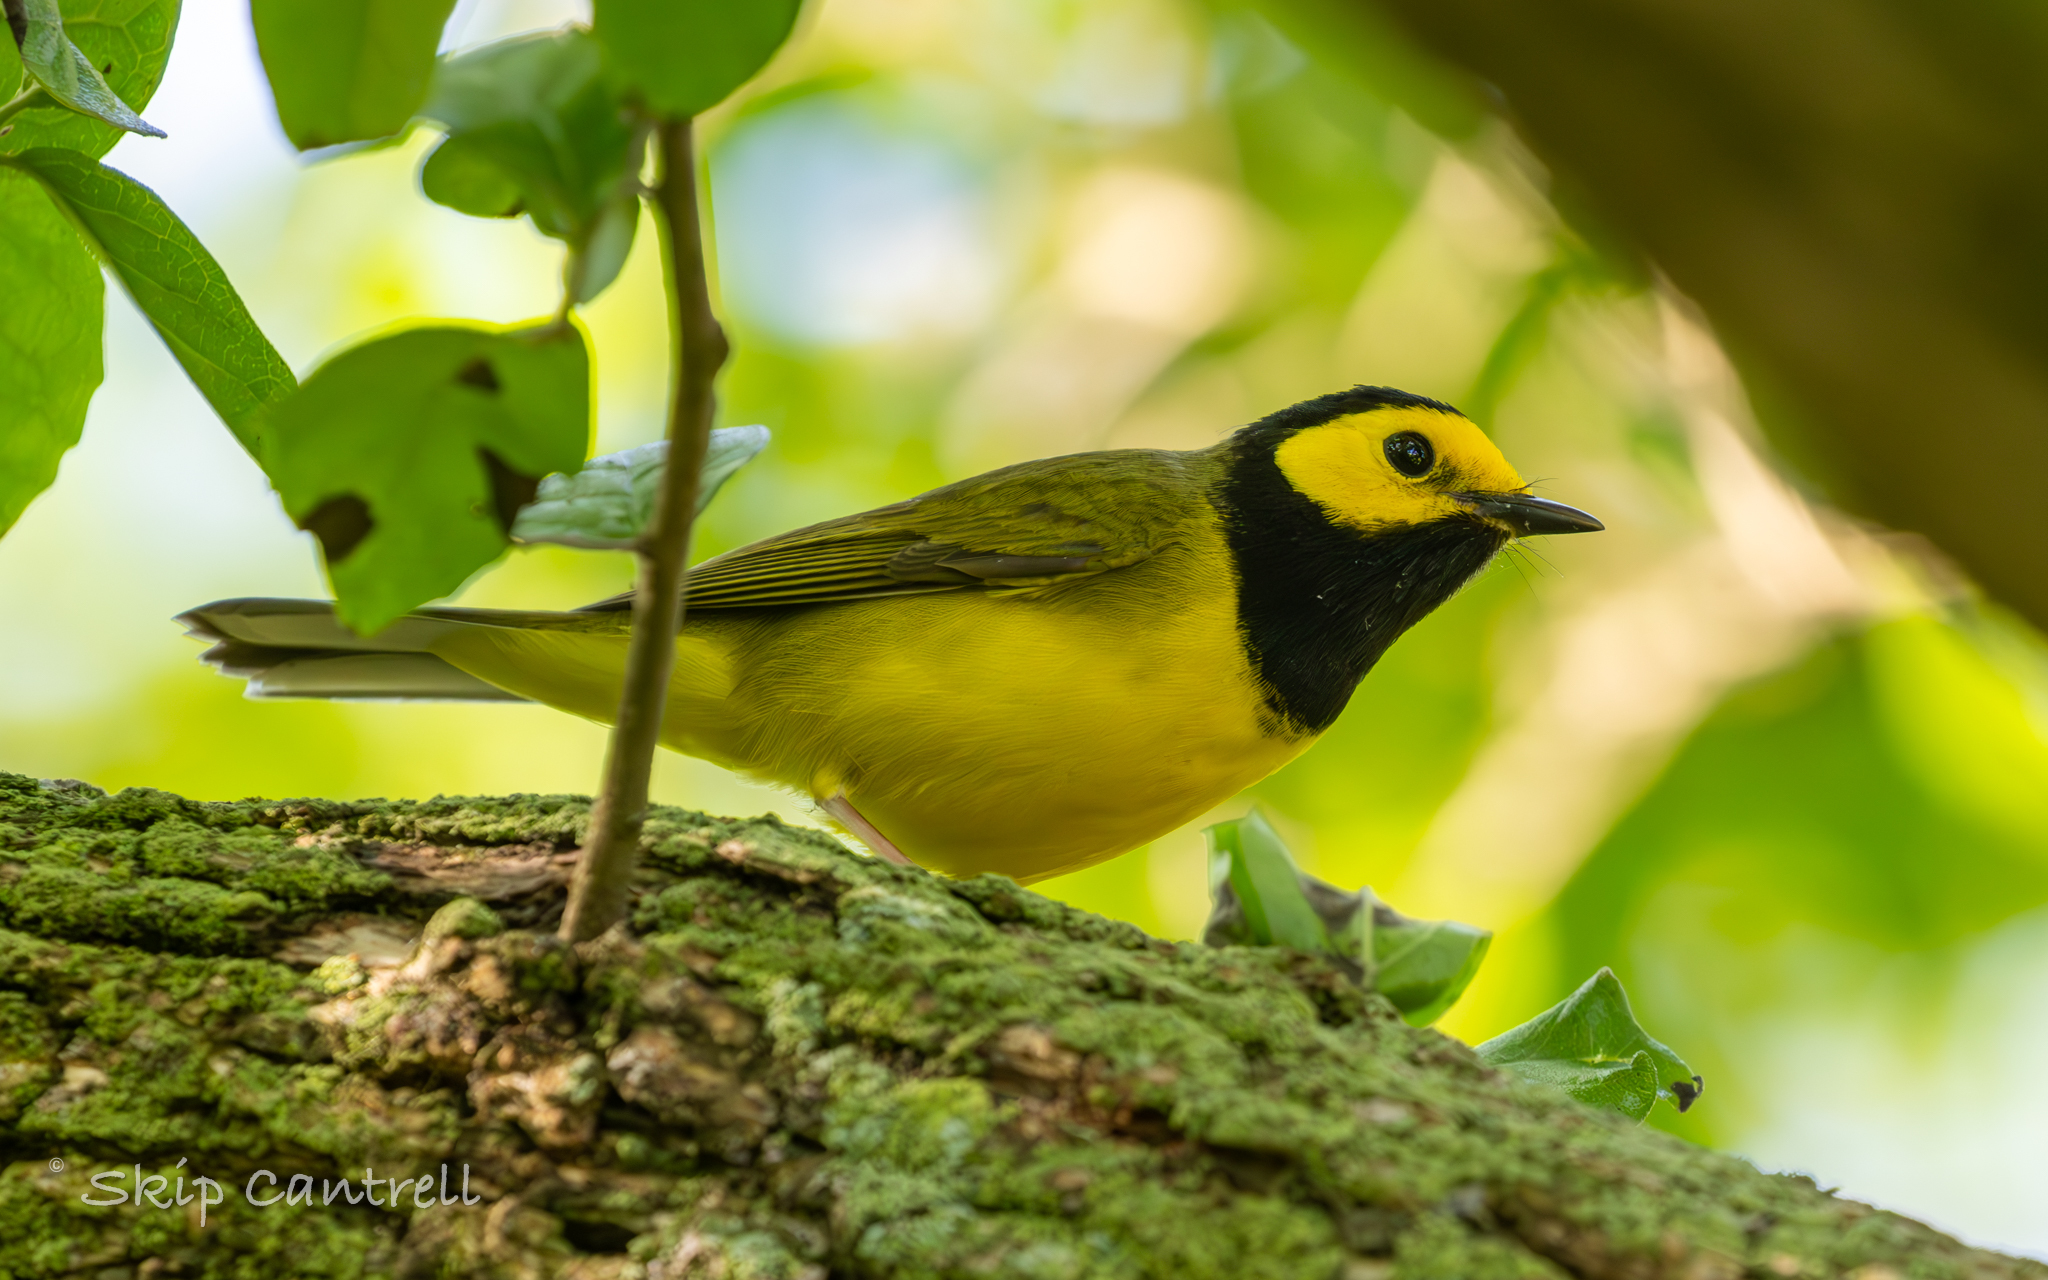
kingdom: Animalia
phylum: Chordata
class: Aves
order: Passeriformes
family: Parulidae
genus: Setophaga
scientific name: Setophaga citrina
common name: Hooded warbler
